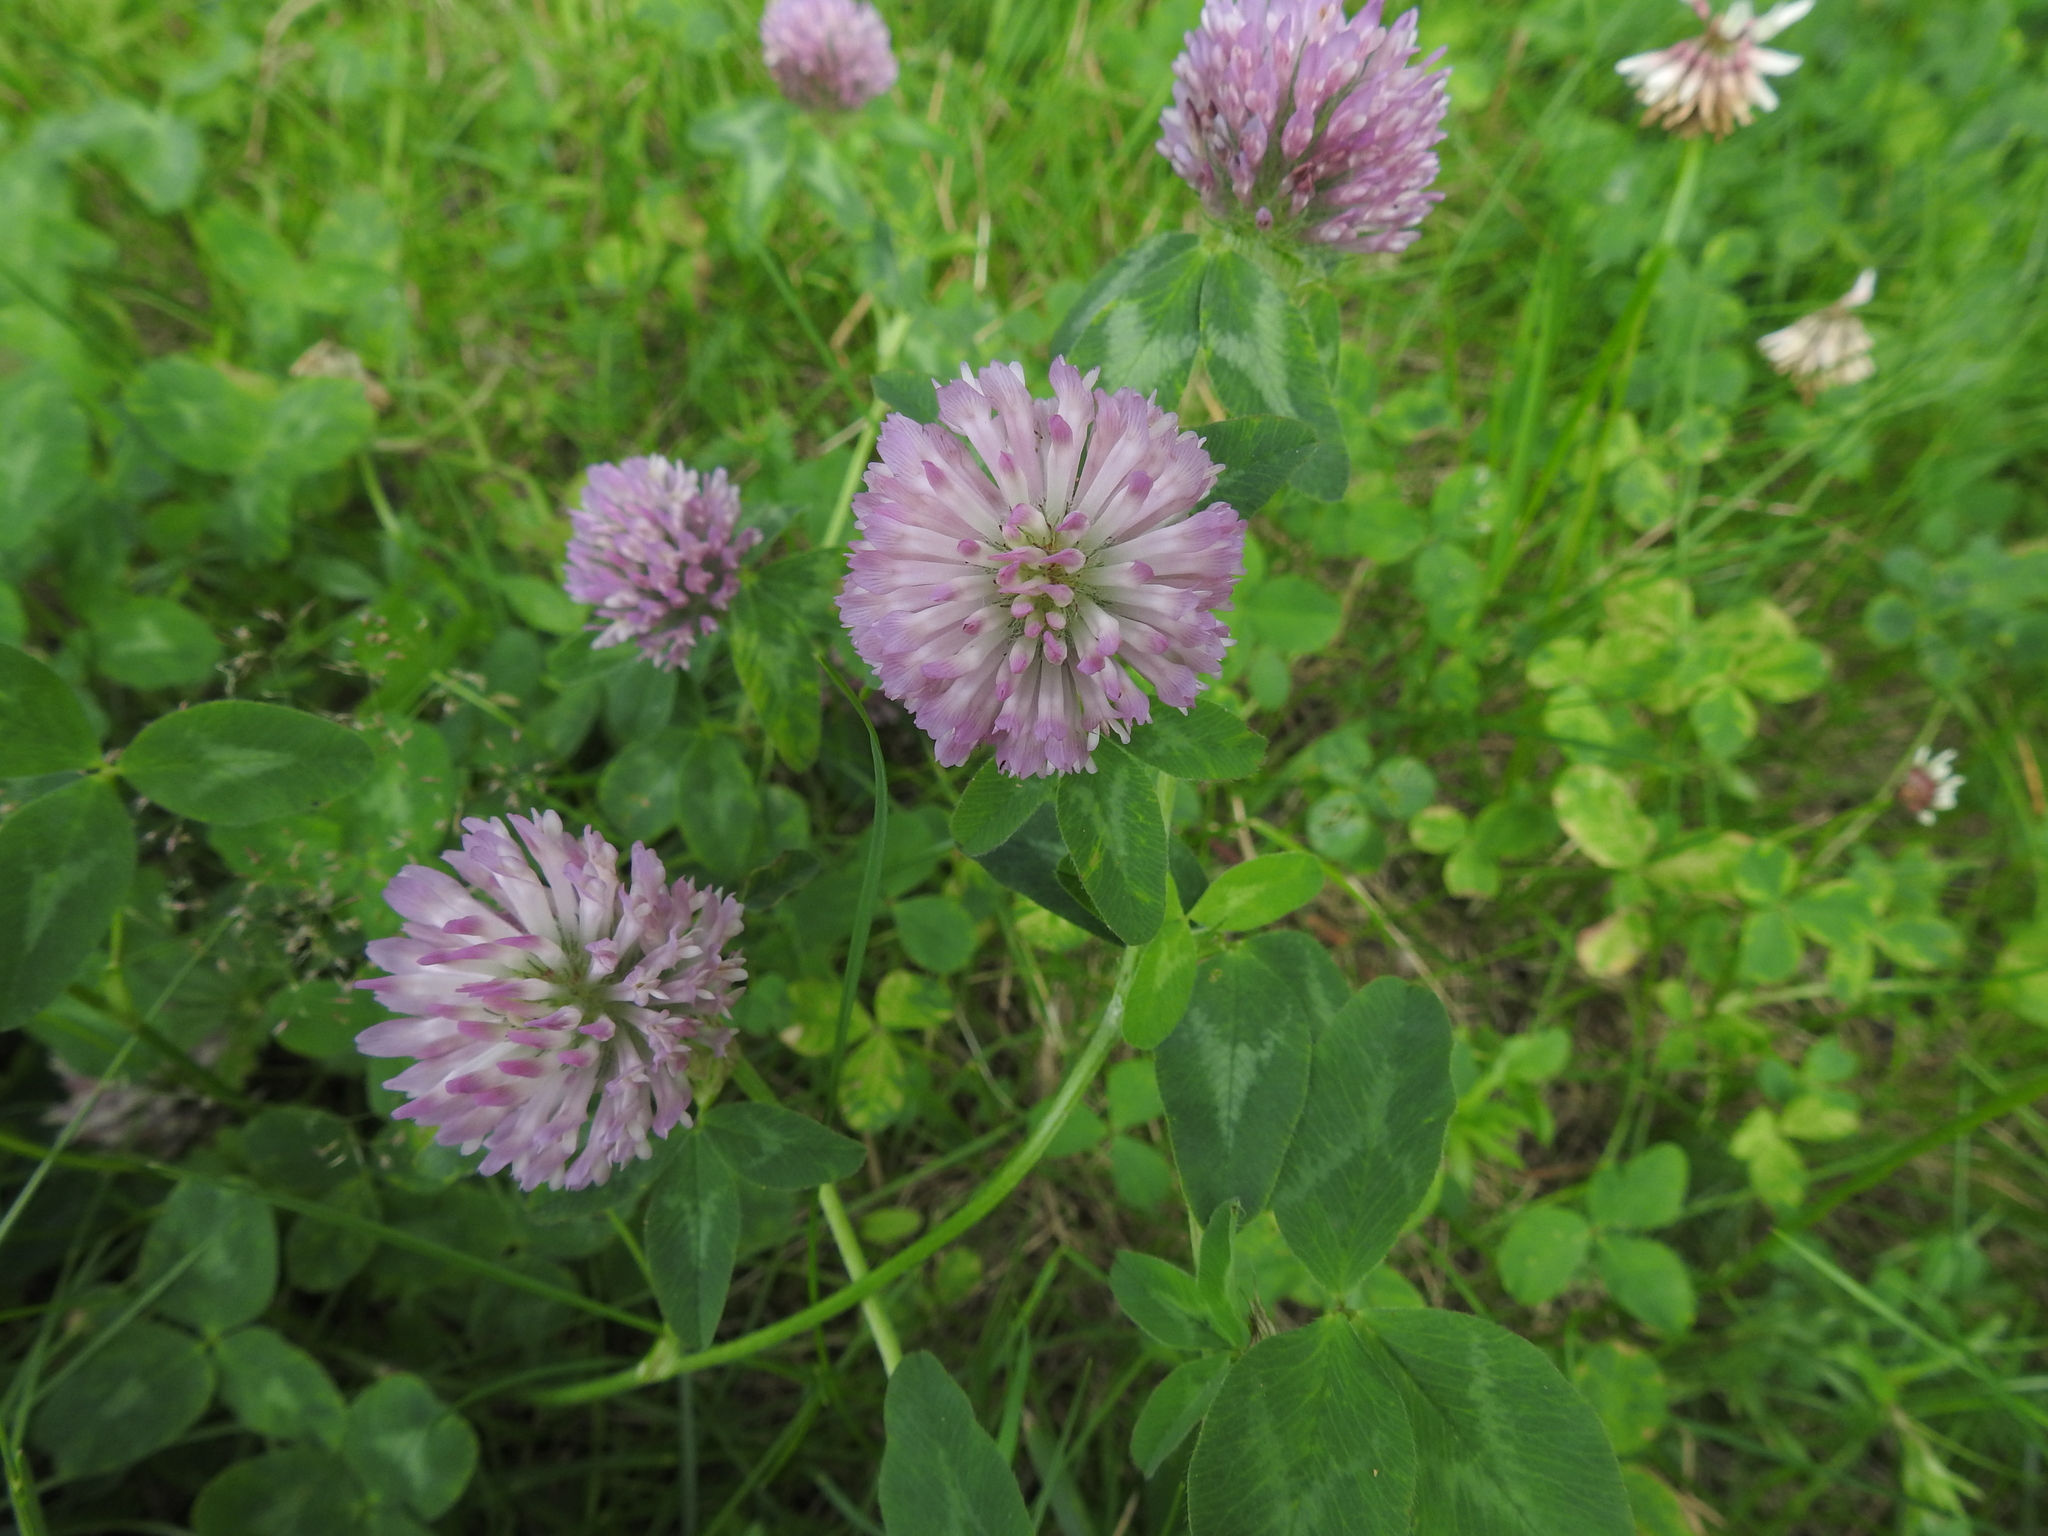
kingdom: Plantae
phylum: Tracheophyta
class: Magnoliopsida
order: Fabales
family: Fabaceae
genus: Trifolium
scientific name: Trifolium pratense
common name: Red clover
